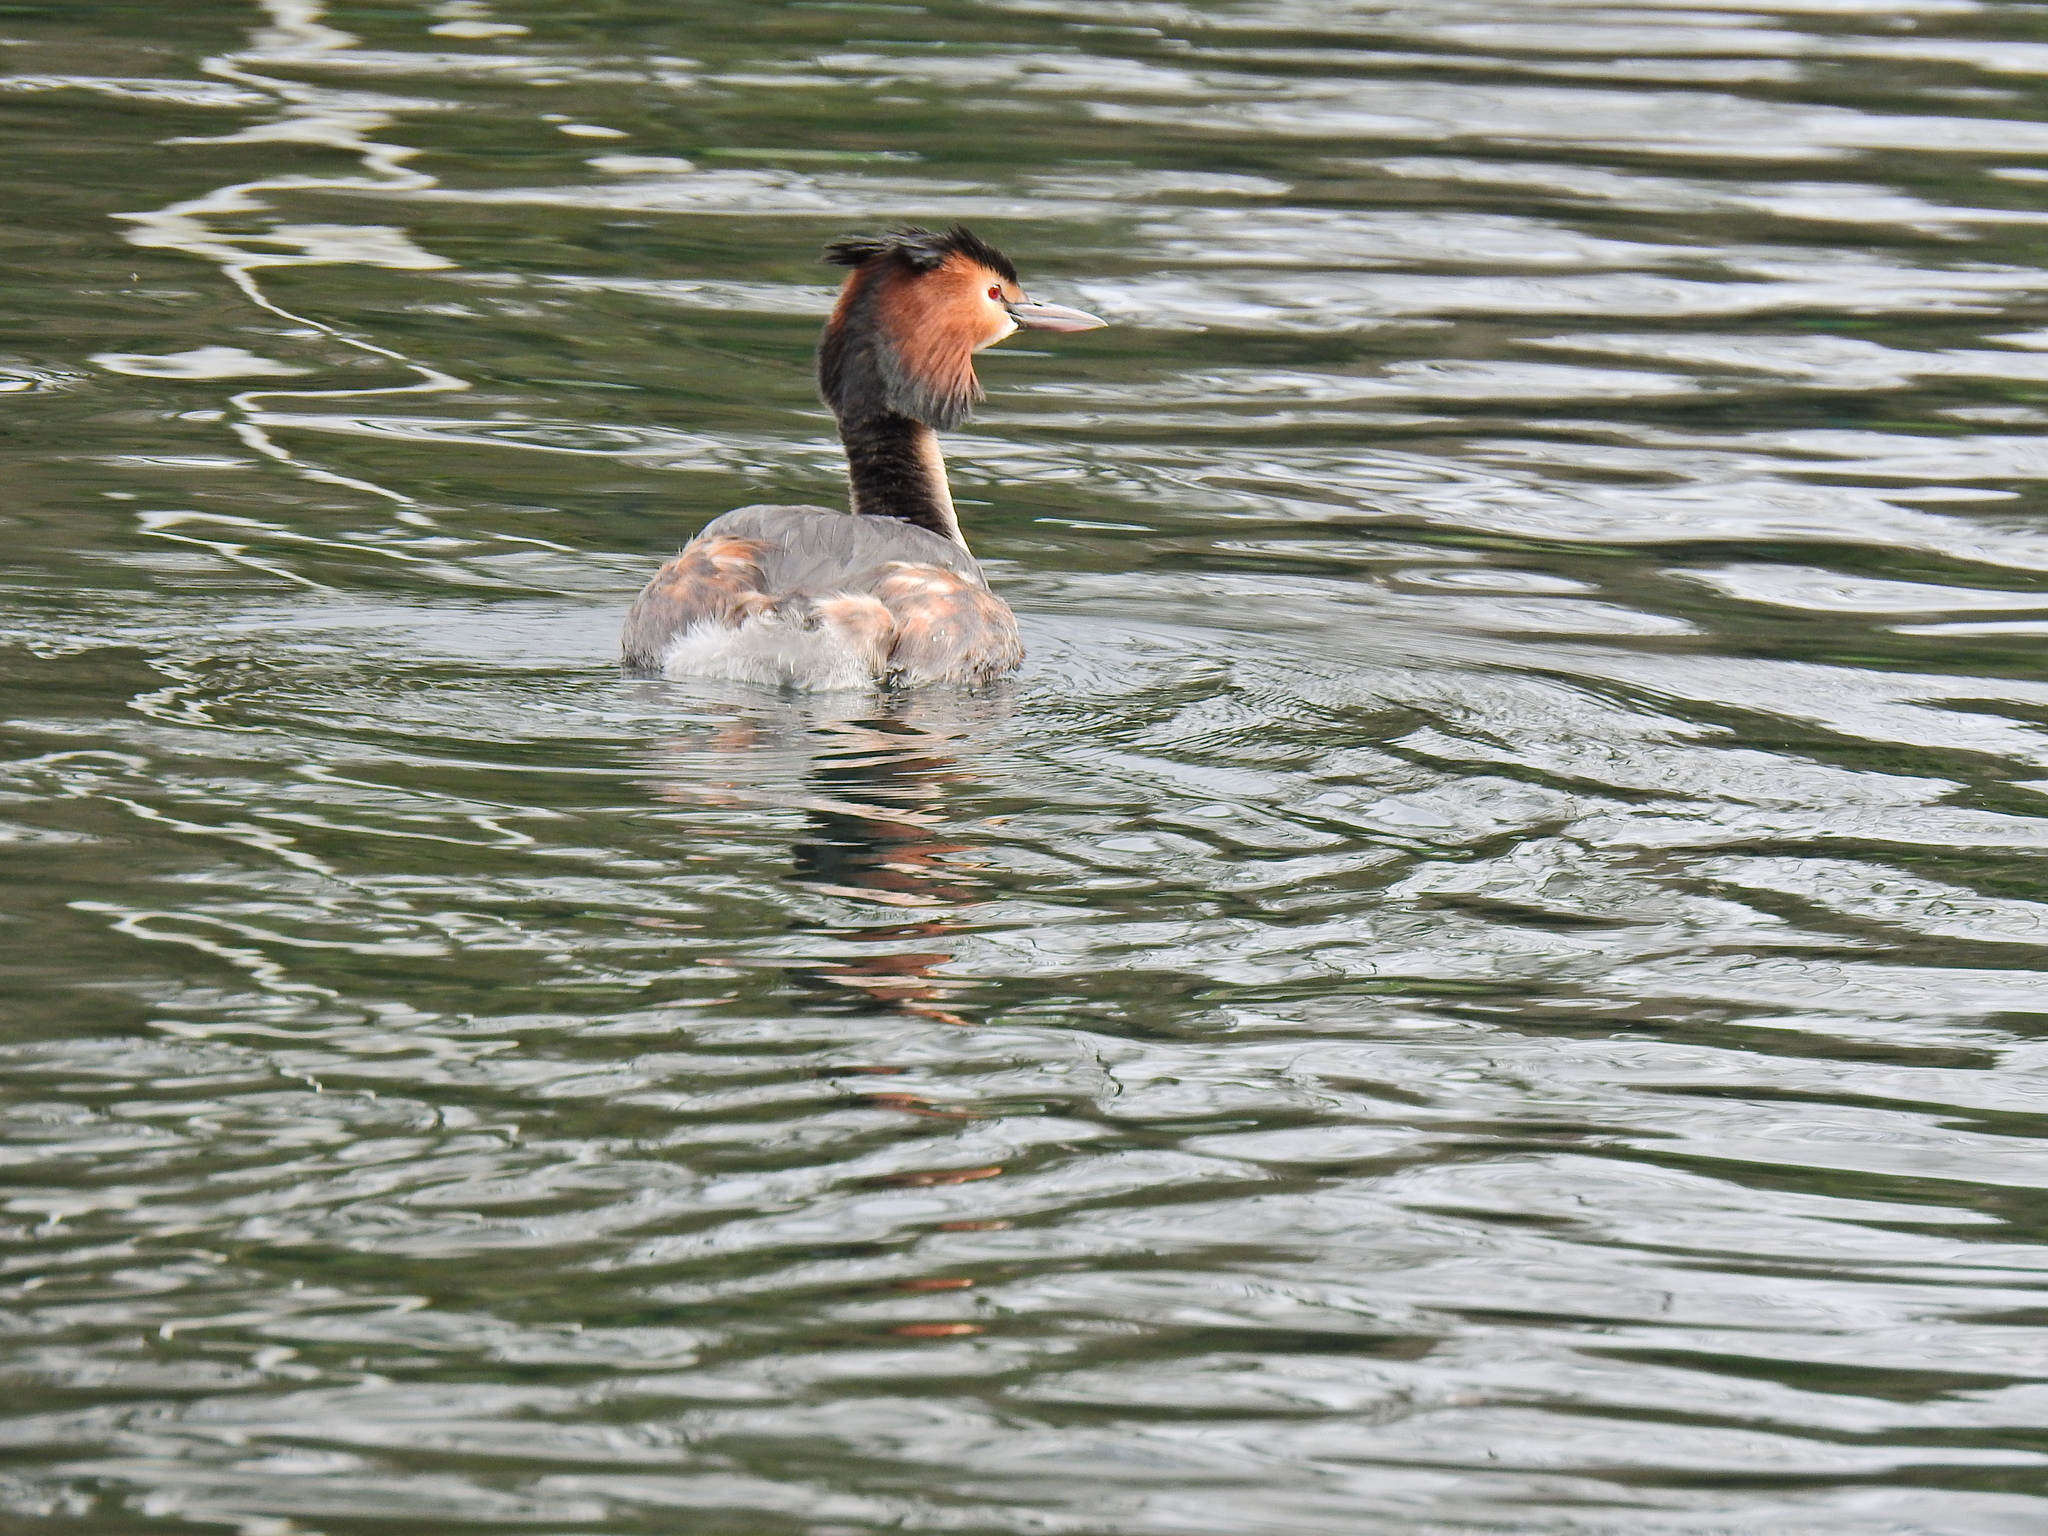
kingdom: Animalia
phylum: Chordata
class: Aves
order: Podicipediformes
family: Podicipedidae
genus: Podiceps
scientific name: Podiceps cristatus
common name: Great crested grebe
